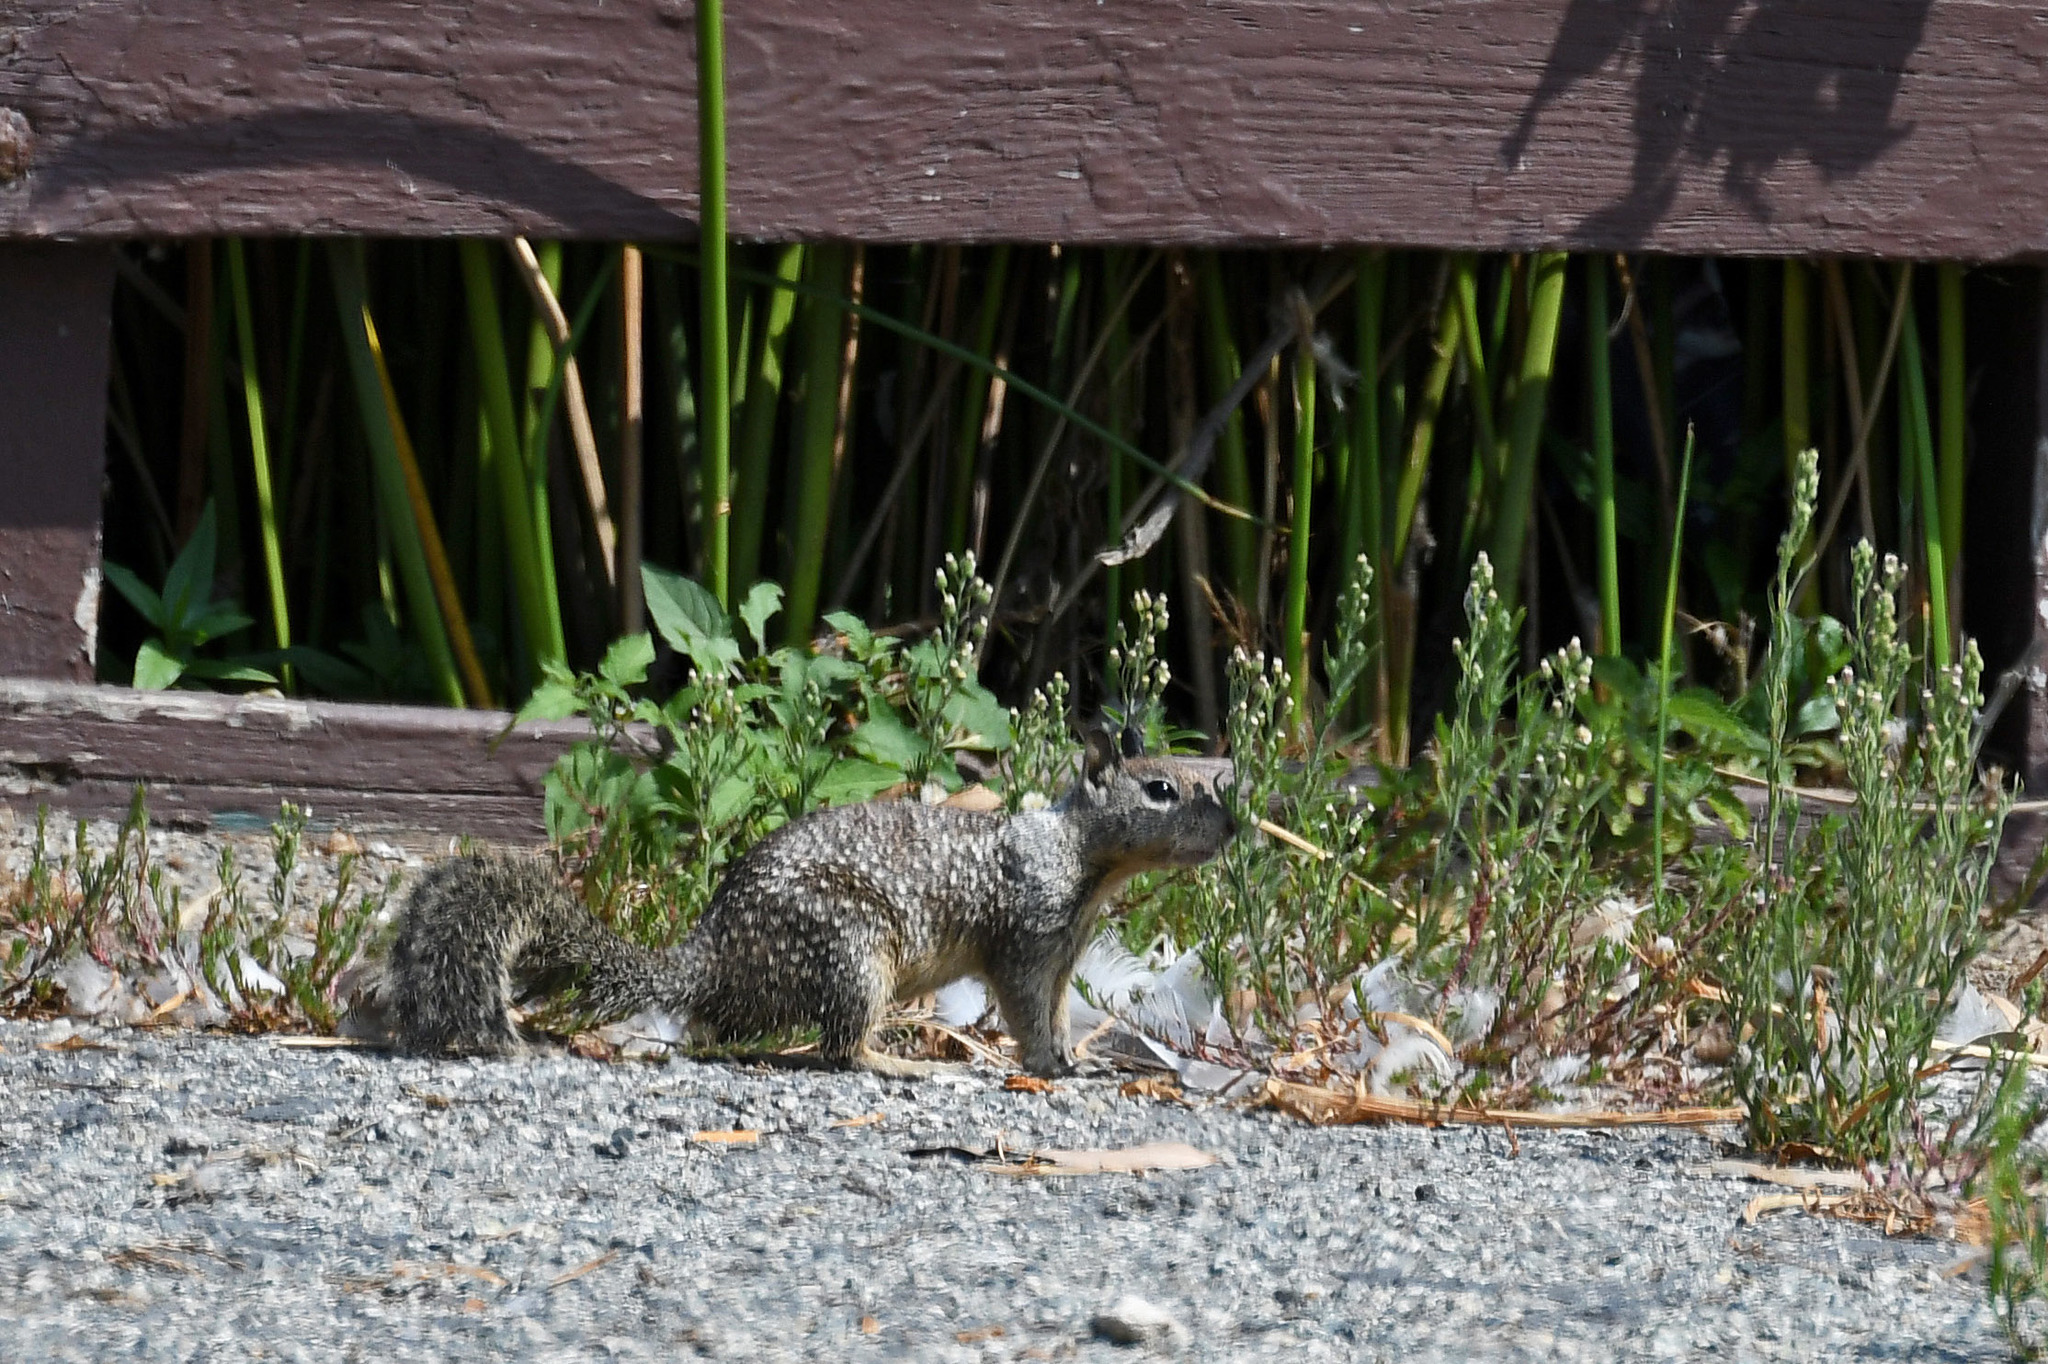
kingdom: Animalia
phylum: Chordata
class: Mammalia
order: Rodentia
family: Sciuridae
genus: Otospermophilus
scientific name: Otospermophilus beecheyi
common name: California ground squirrel
